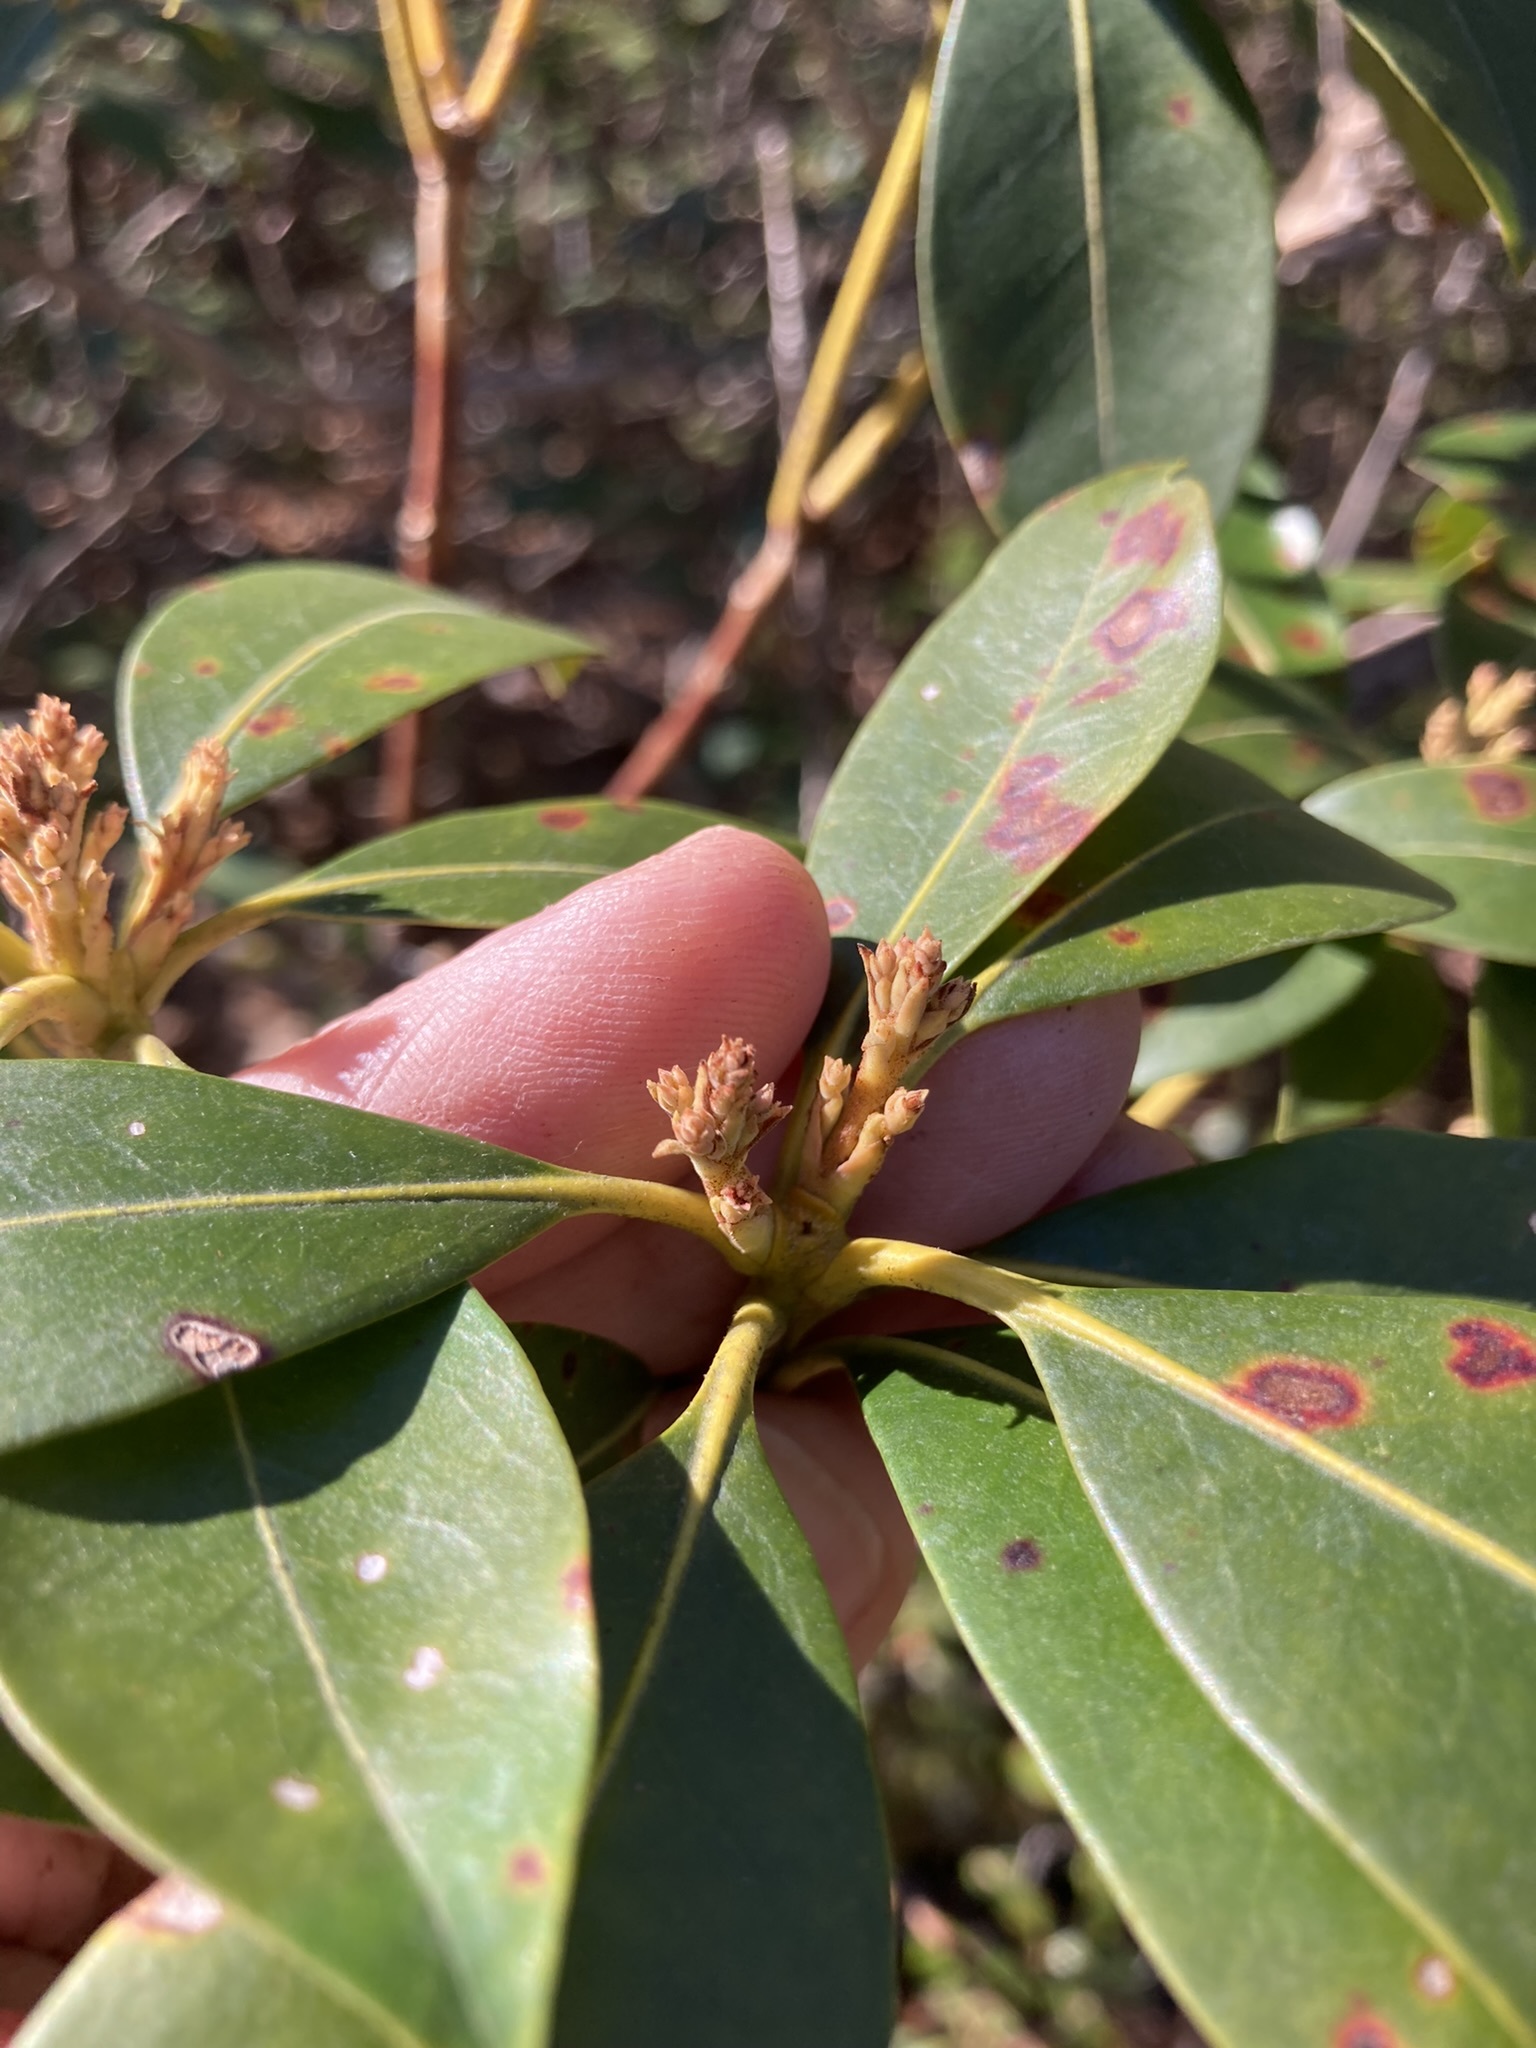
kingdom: Fungi
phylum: Ascomycota
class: Dothideomycetes
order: Mycosphaerellales
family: Mycosphaerellaceae
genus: Mycosphaerella
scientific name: Mycosphaerella colorata
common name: Mountain laurel leaf spot
